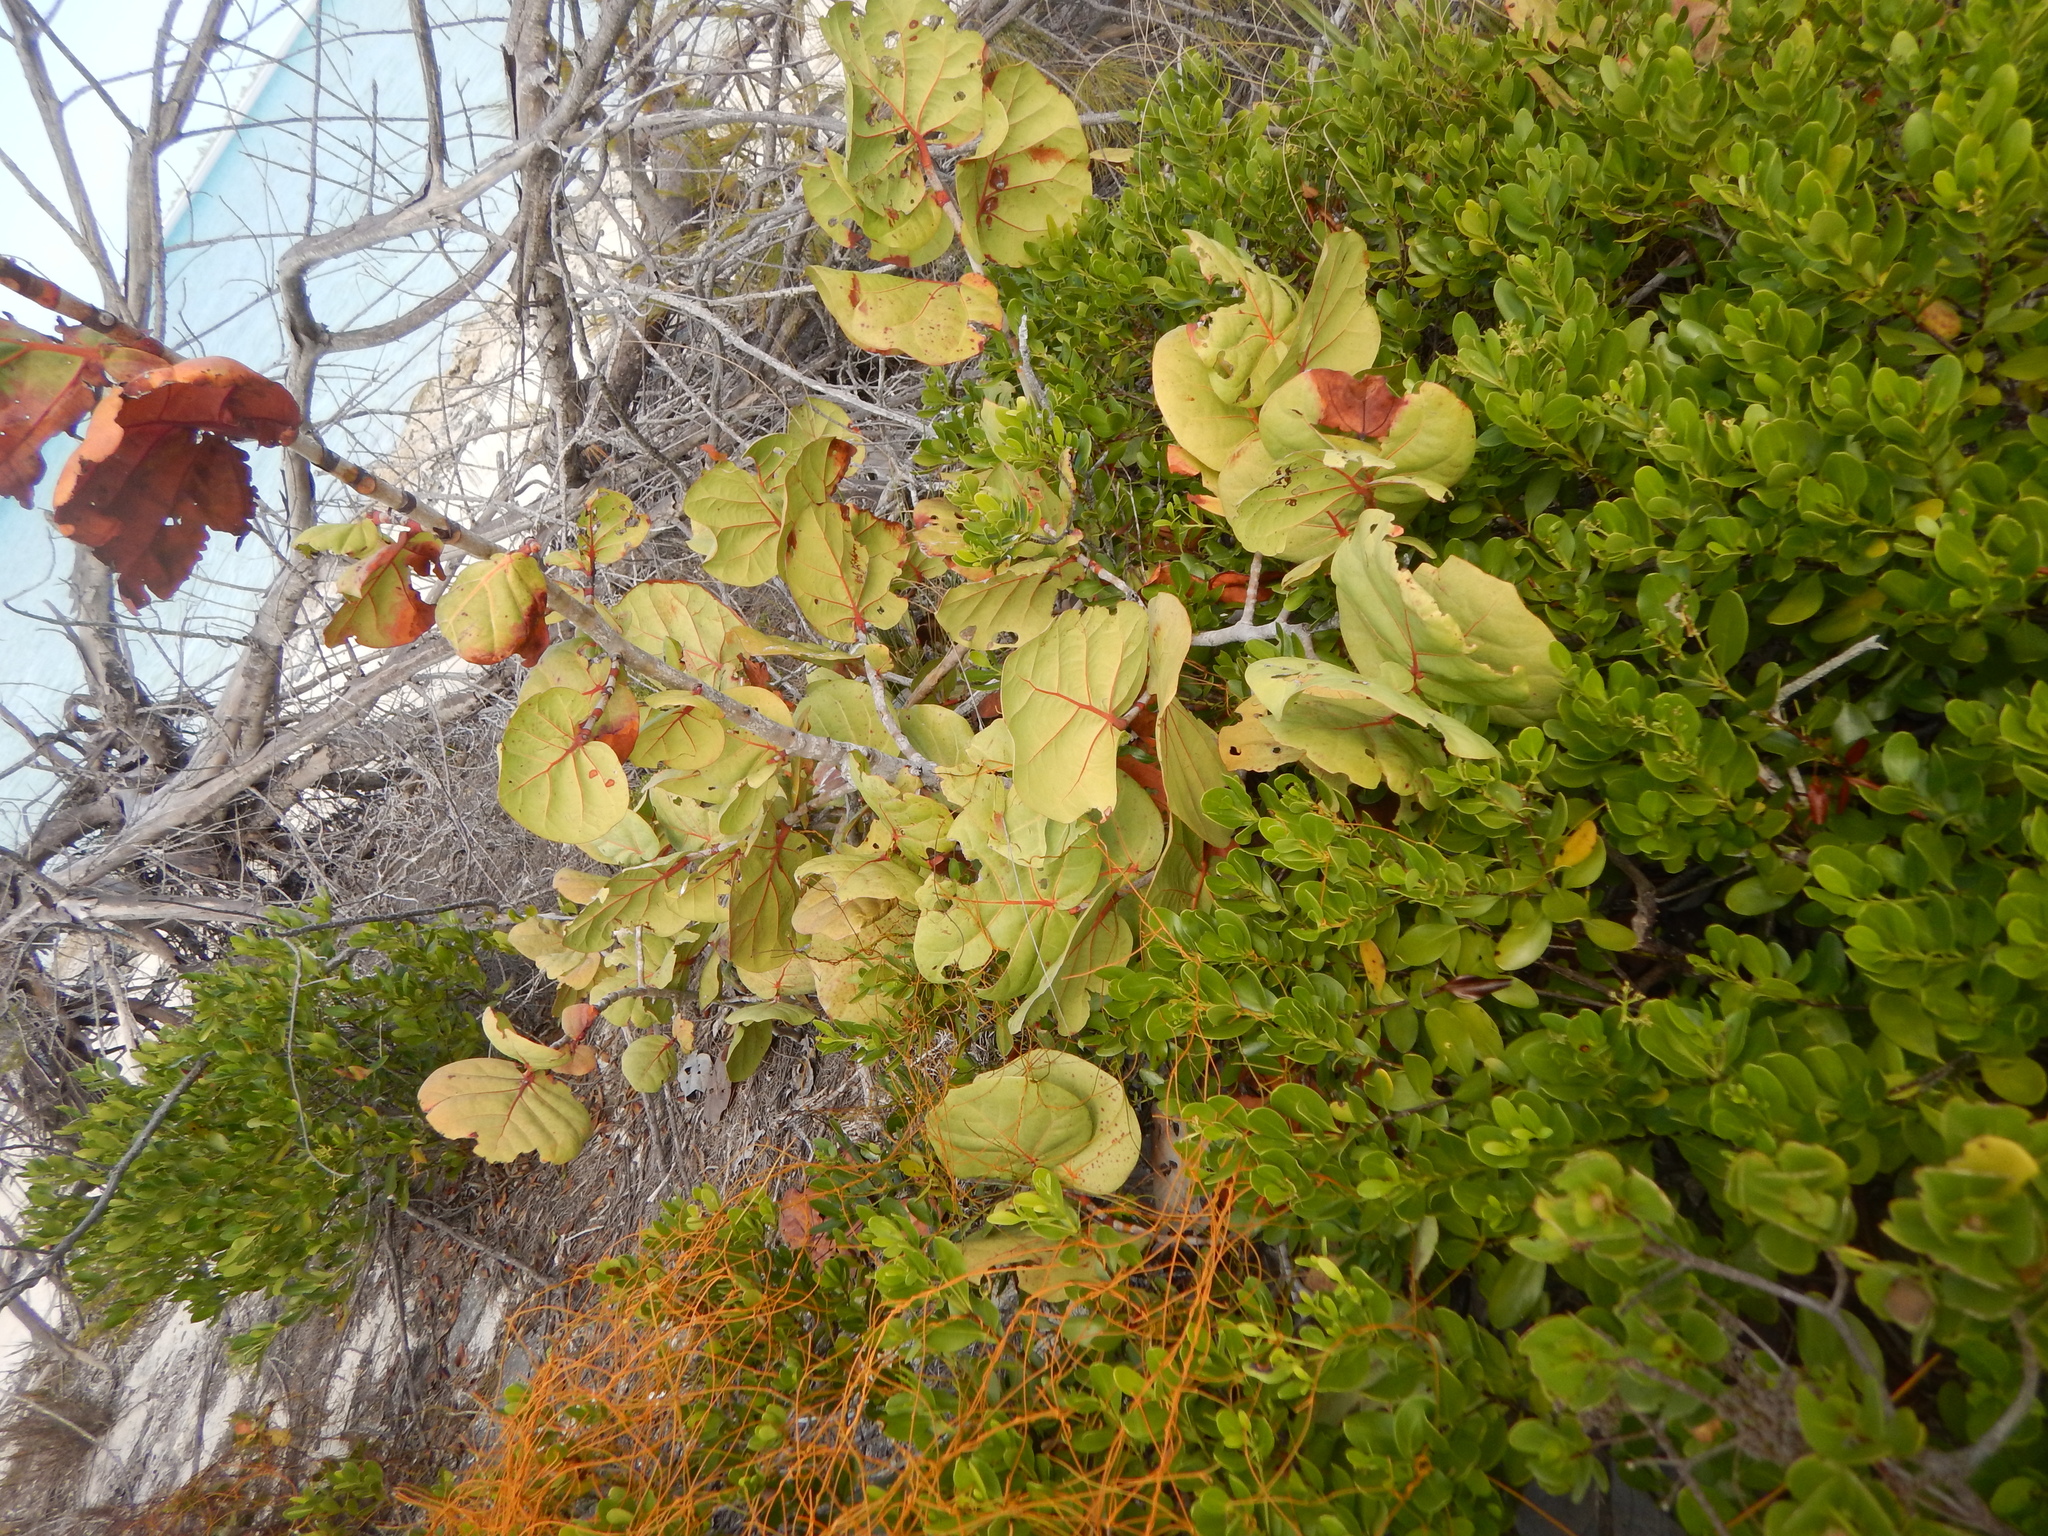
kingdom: Plantae
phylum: Tracheophyta
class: Magnoliopsida
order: Caryophyllales
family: Polygonaceae
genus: Coccoloba
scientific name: Coccoloba uvifera
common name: Seagrape
